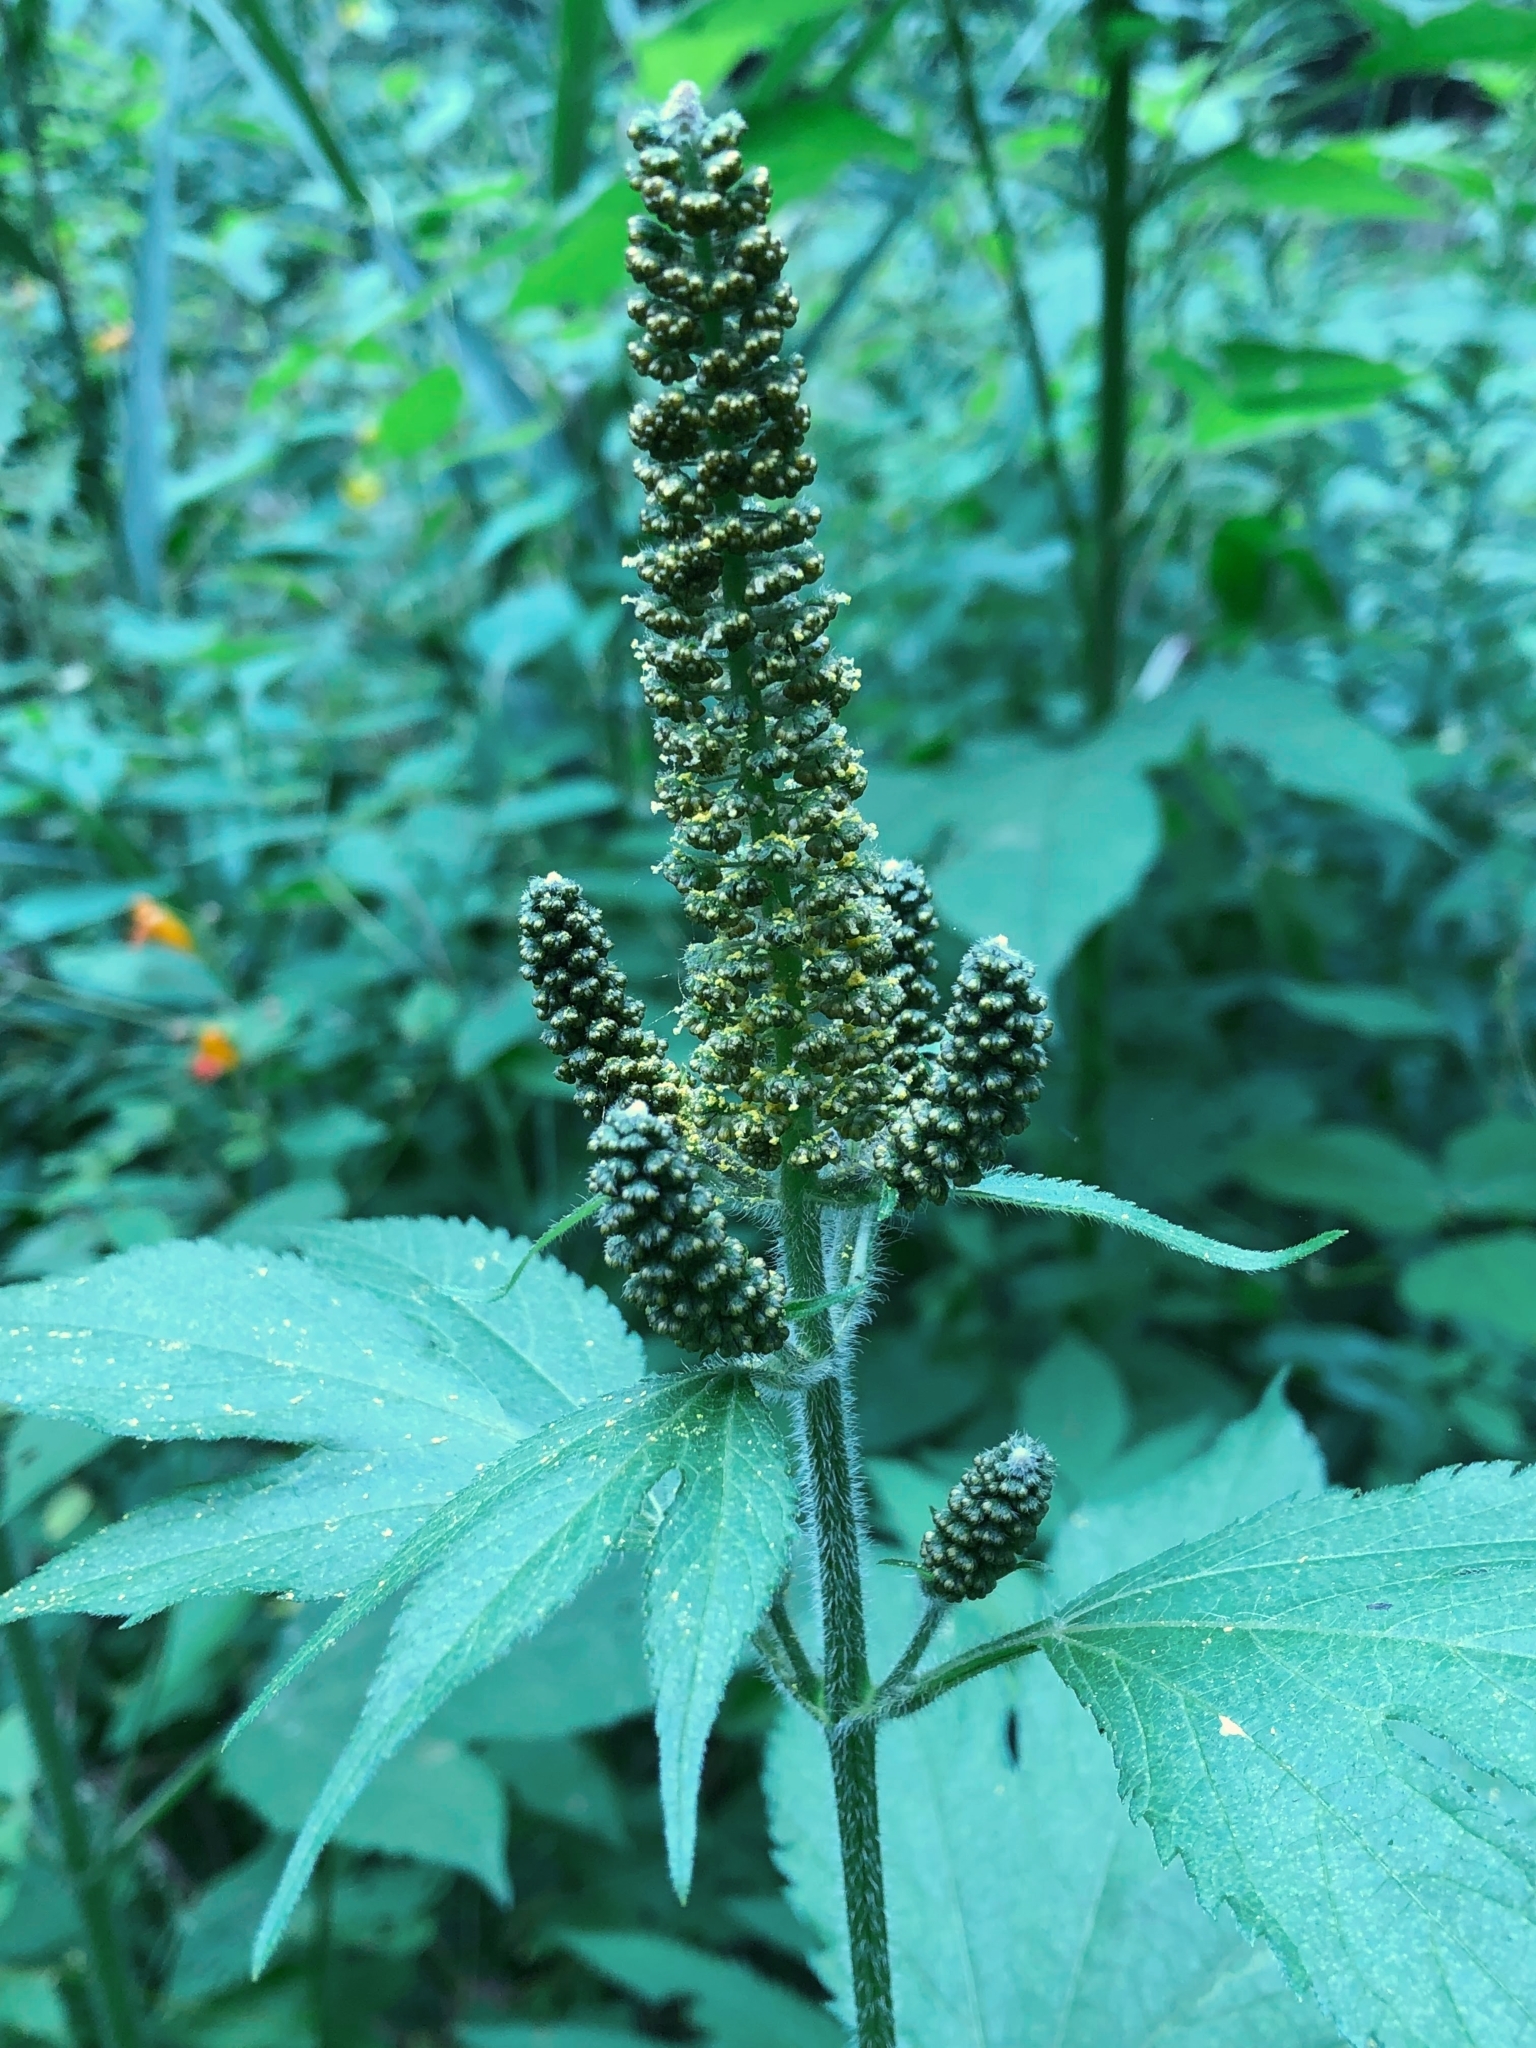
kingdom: Plantae
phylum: Tracheophyta
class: Magnoliopsida
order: Asterales
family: Asteraceae
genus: Ambrosia
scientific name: Ambrosia trifida
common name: Giant ragweed
